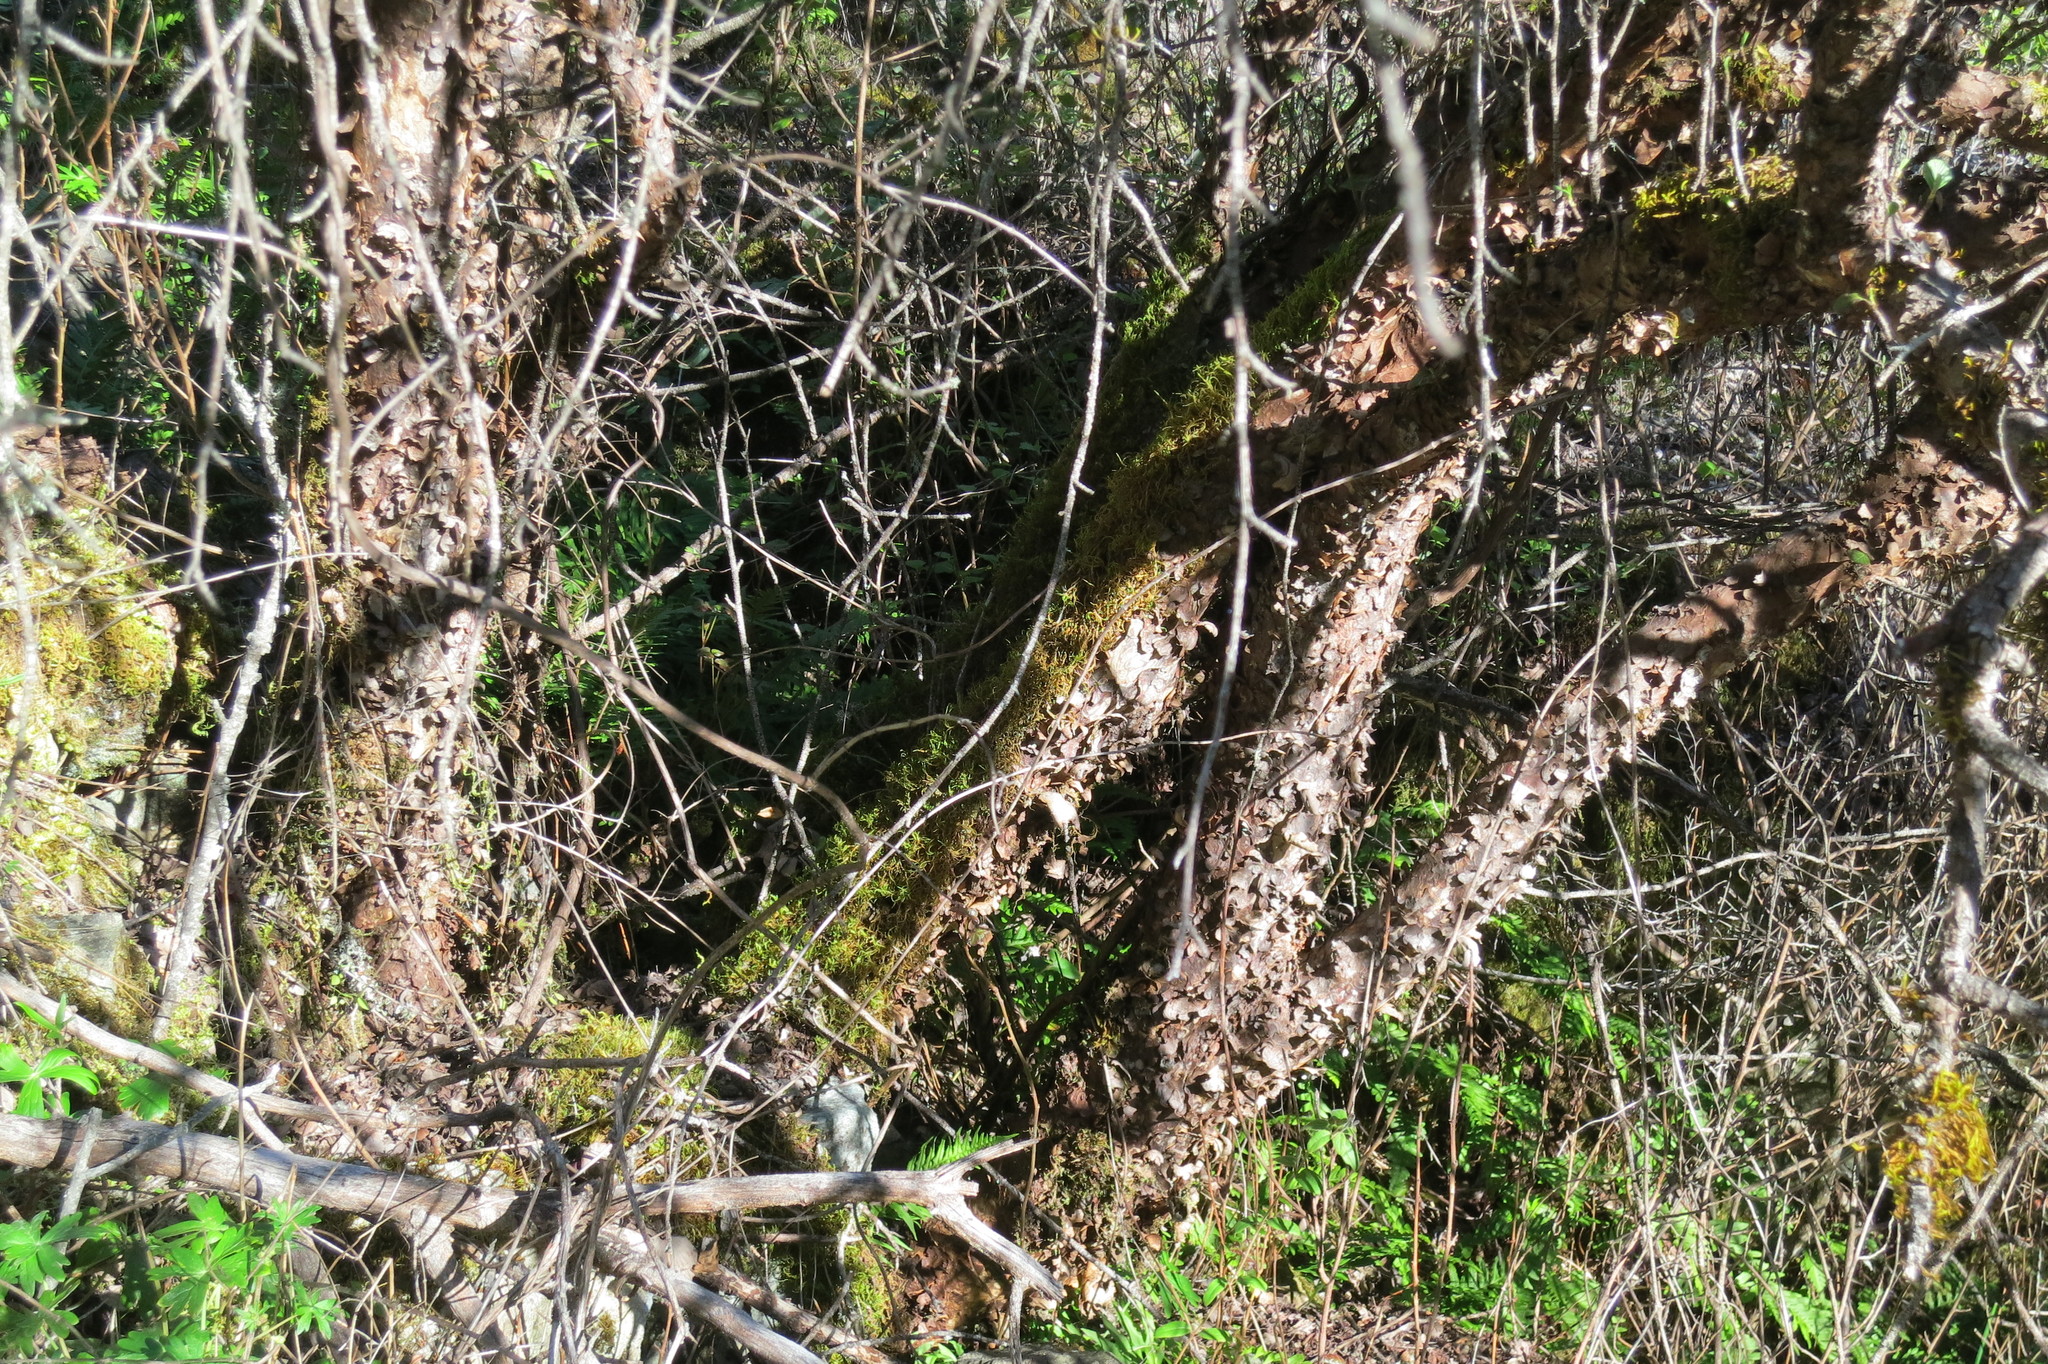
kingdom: Plantae
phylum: Tracheophyta
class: Magnoliopsida
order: Rosales
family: Rosaceae
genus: Cercocarpus
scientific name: Cercocarpus betuloides
